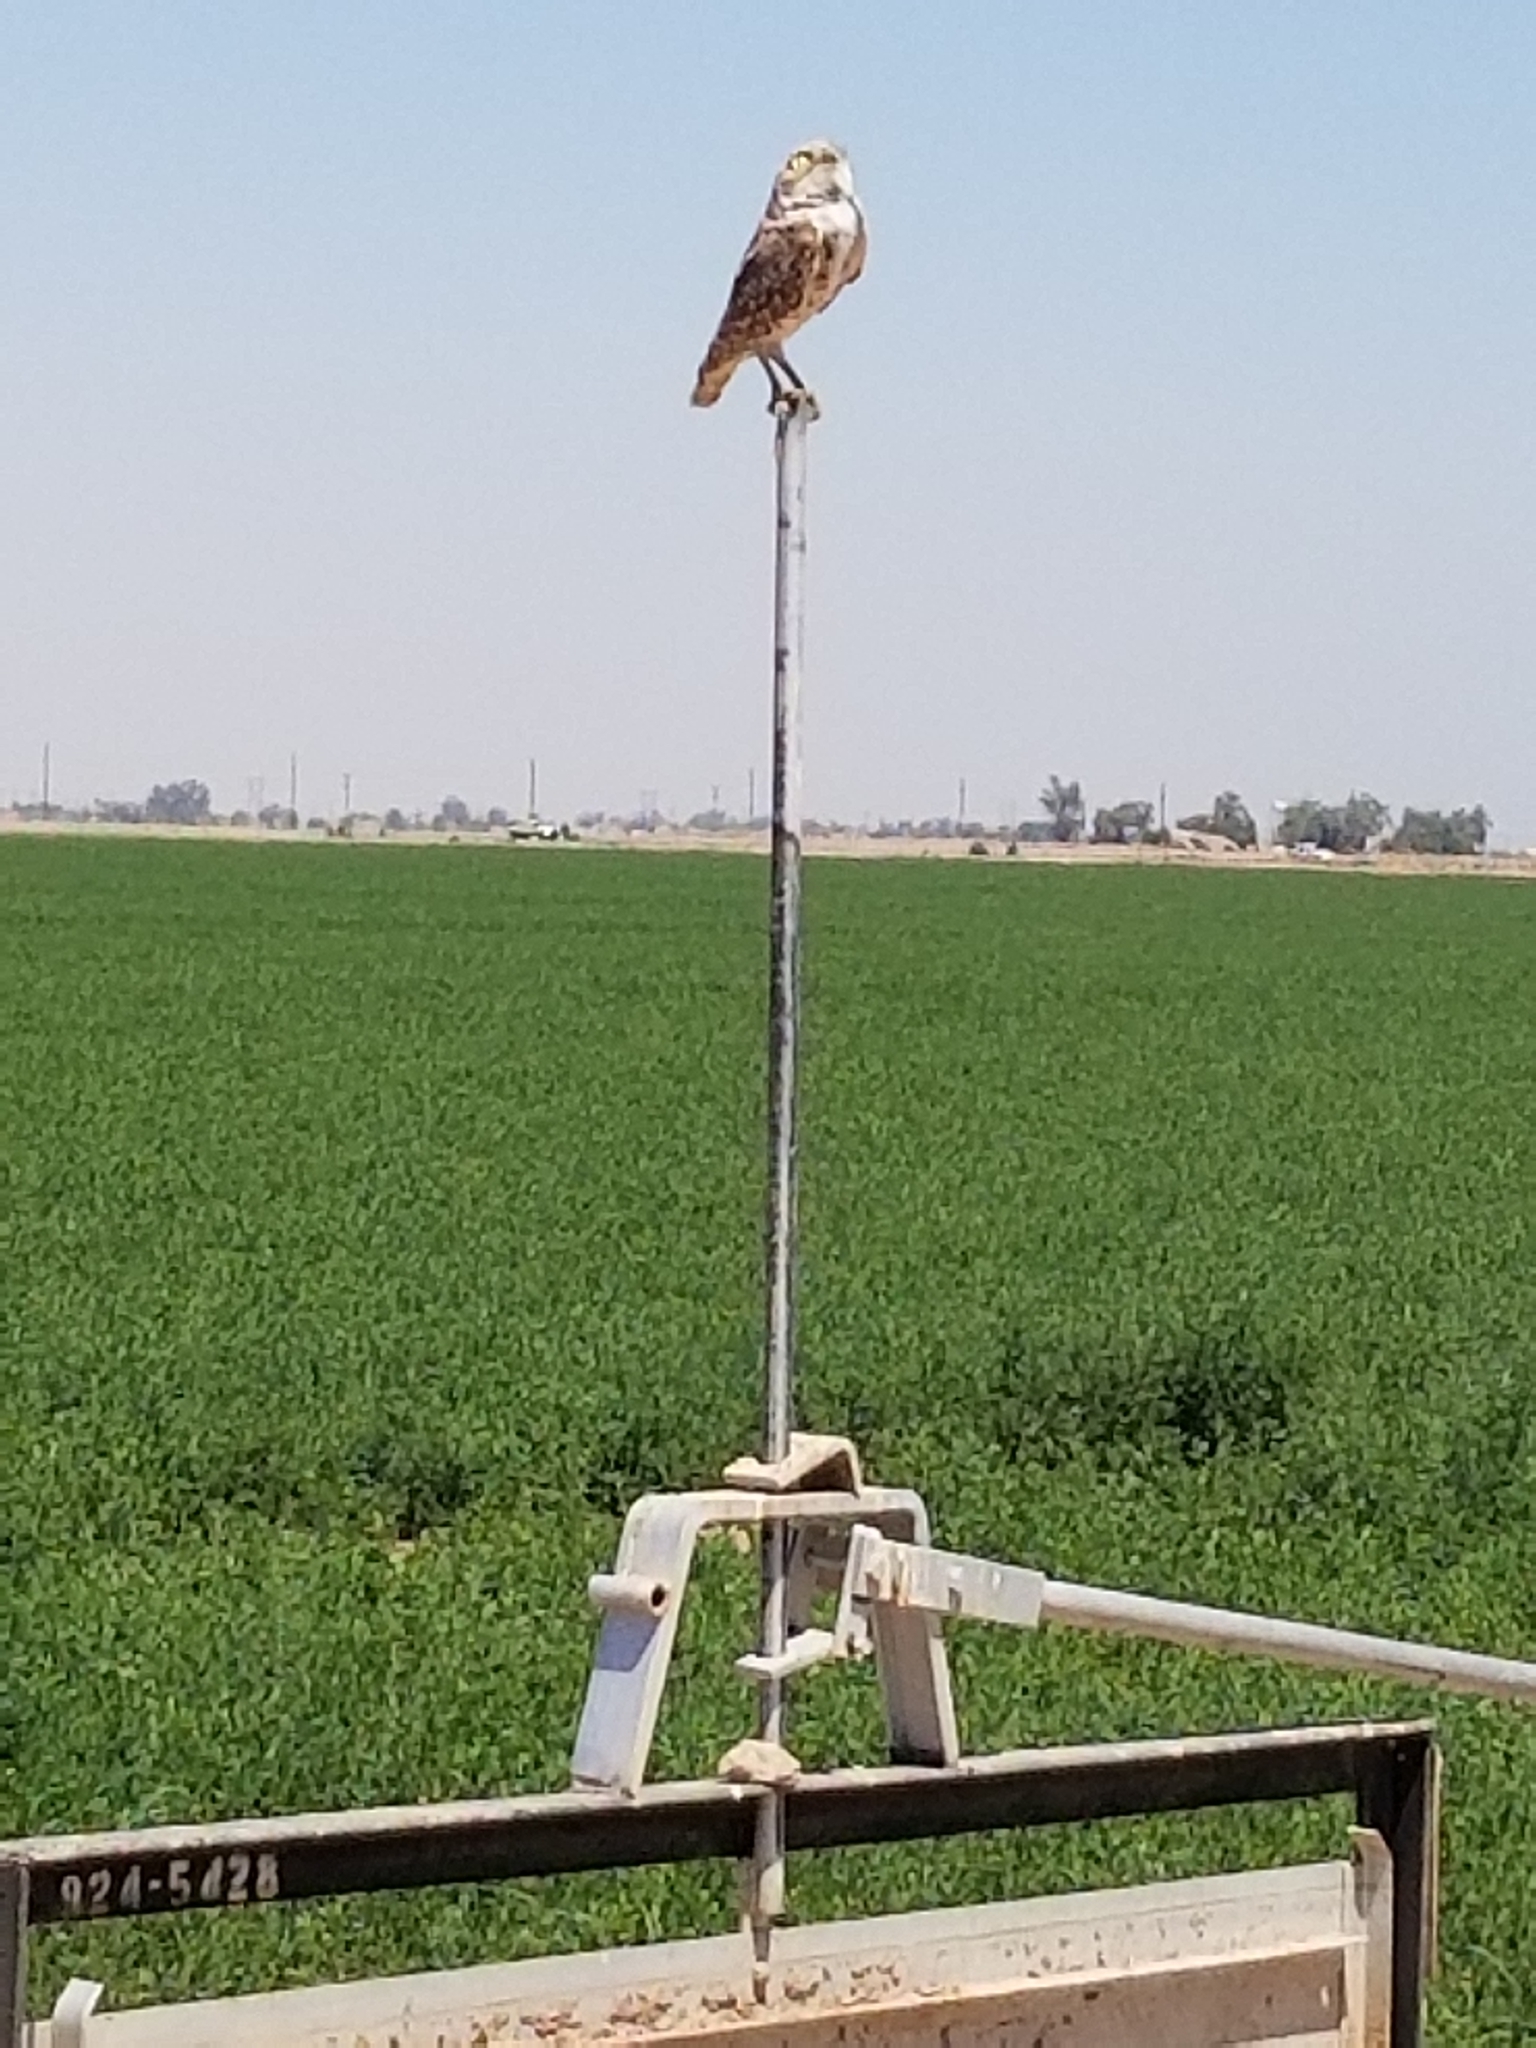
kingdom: Animalia
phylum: Chordata
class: Aves
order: Strigiformes
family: Strigidae
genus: Athene
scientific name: Athene cunicularia
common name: Burrowing owl
